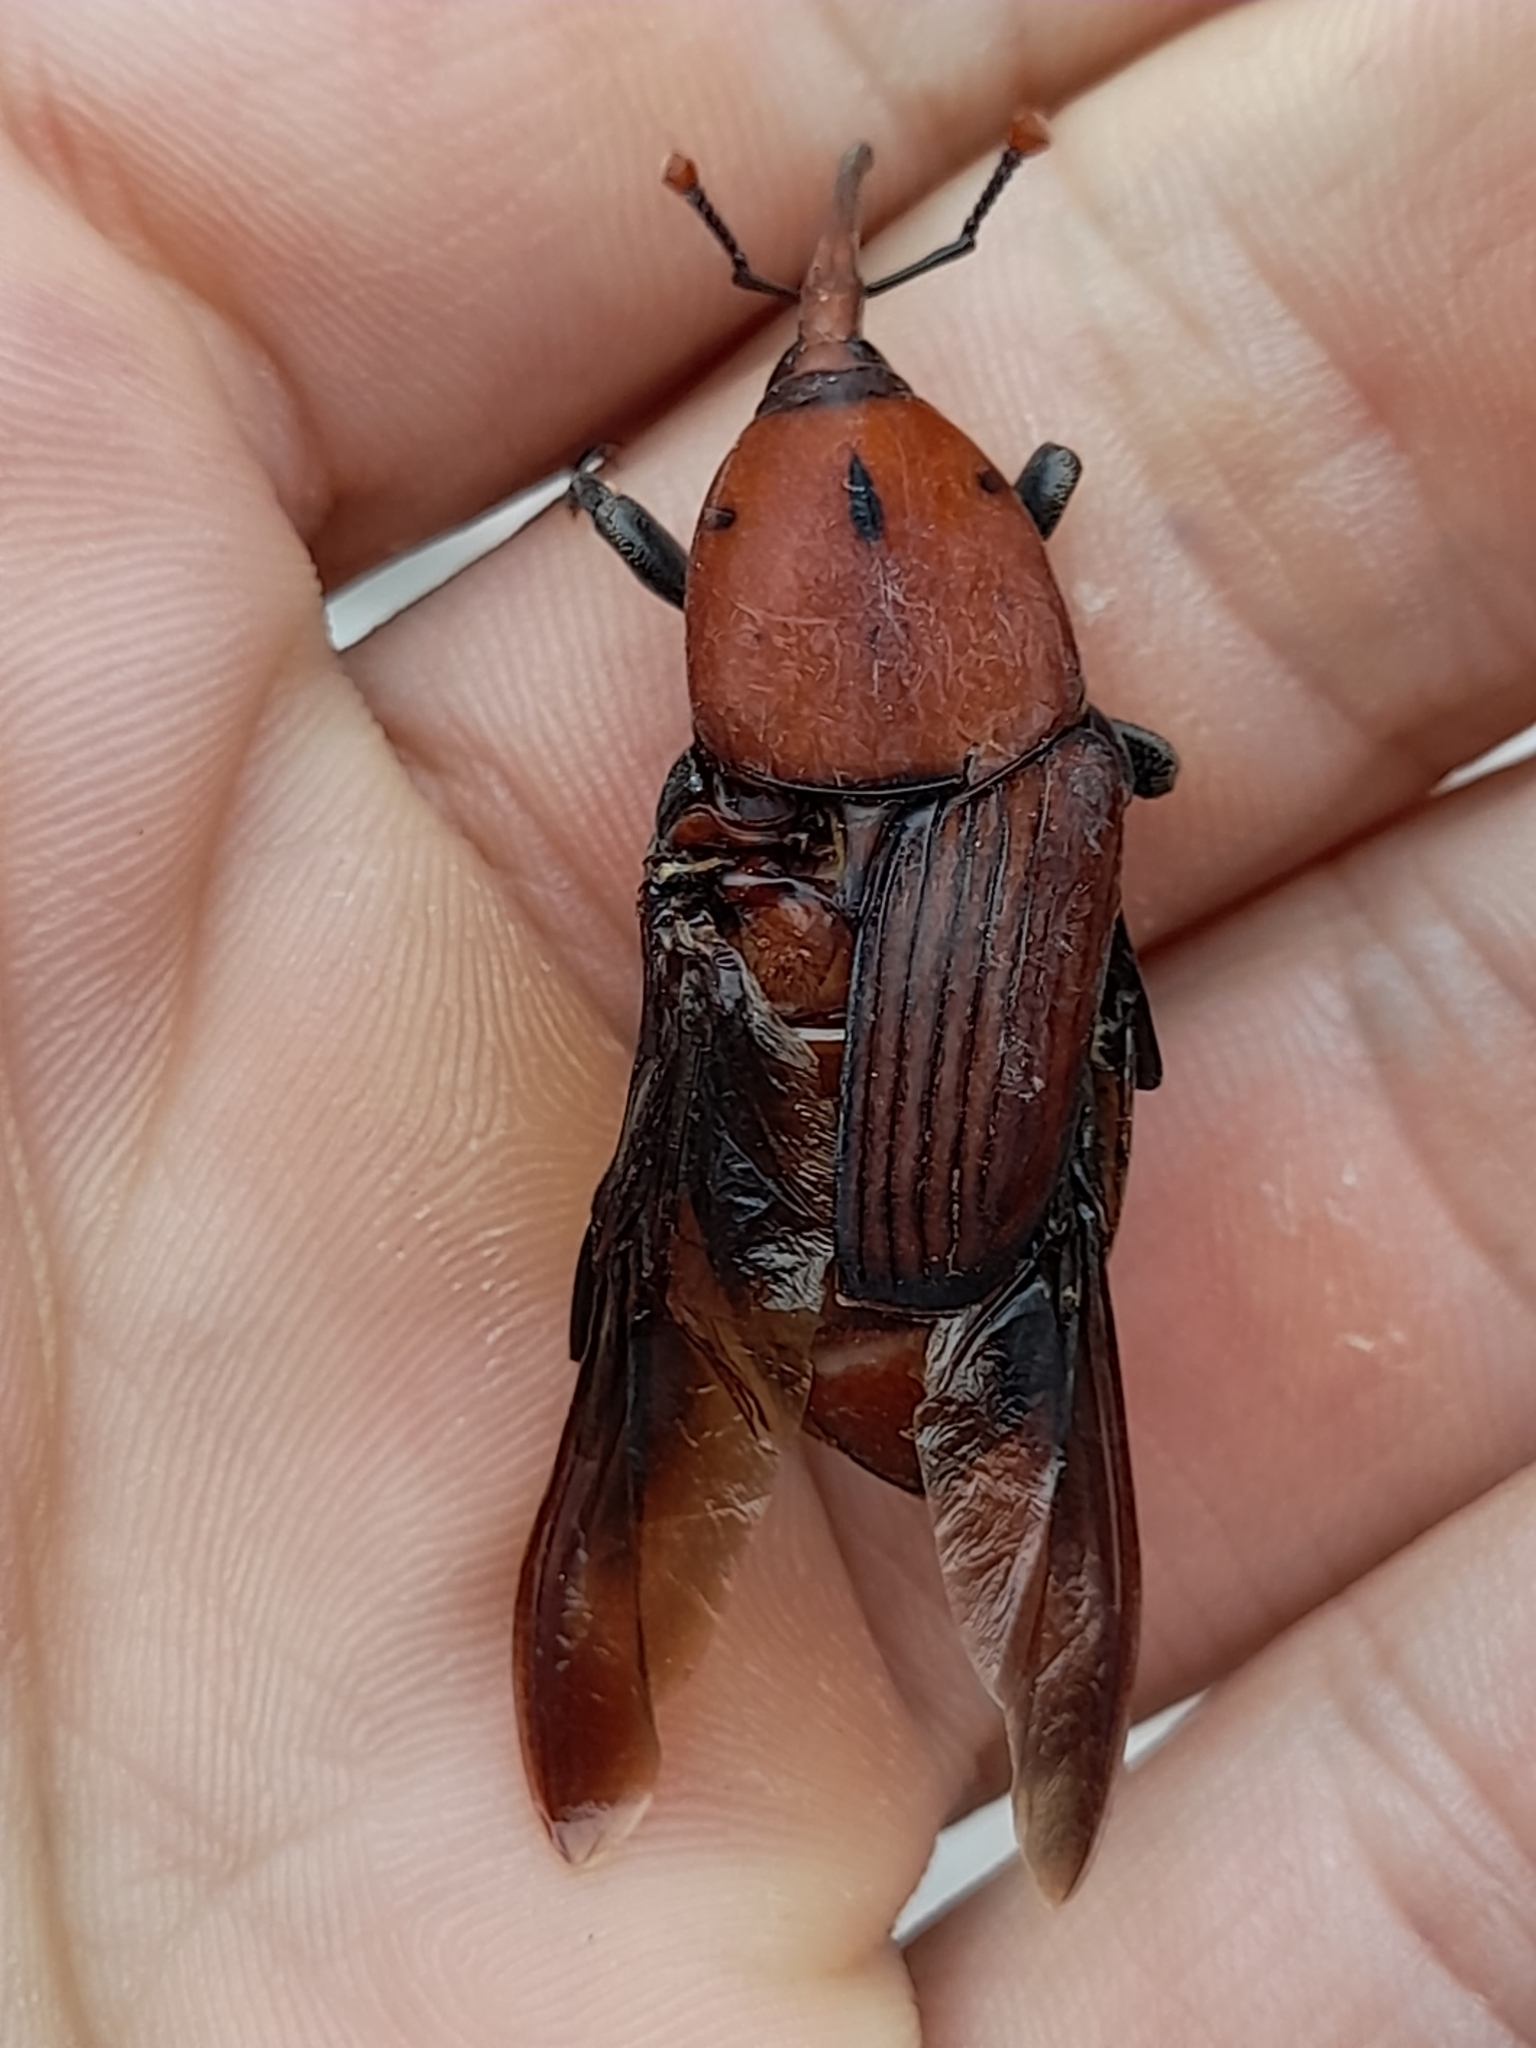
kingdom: Animalia
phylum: Arthropoda
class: Insecta
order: Coleoptera
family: Dryophthoridae
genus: Rhynchophorus
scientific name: Rhynchophorus ferrugineus
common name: Red palm weevil
